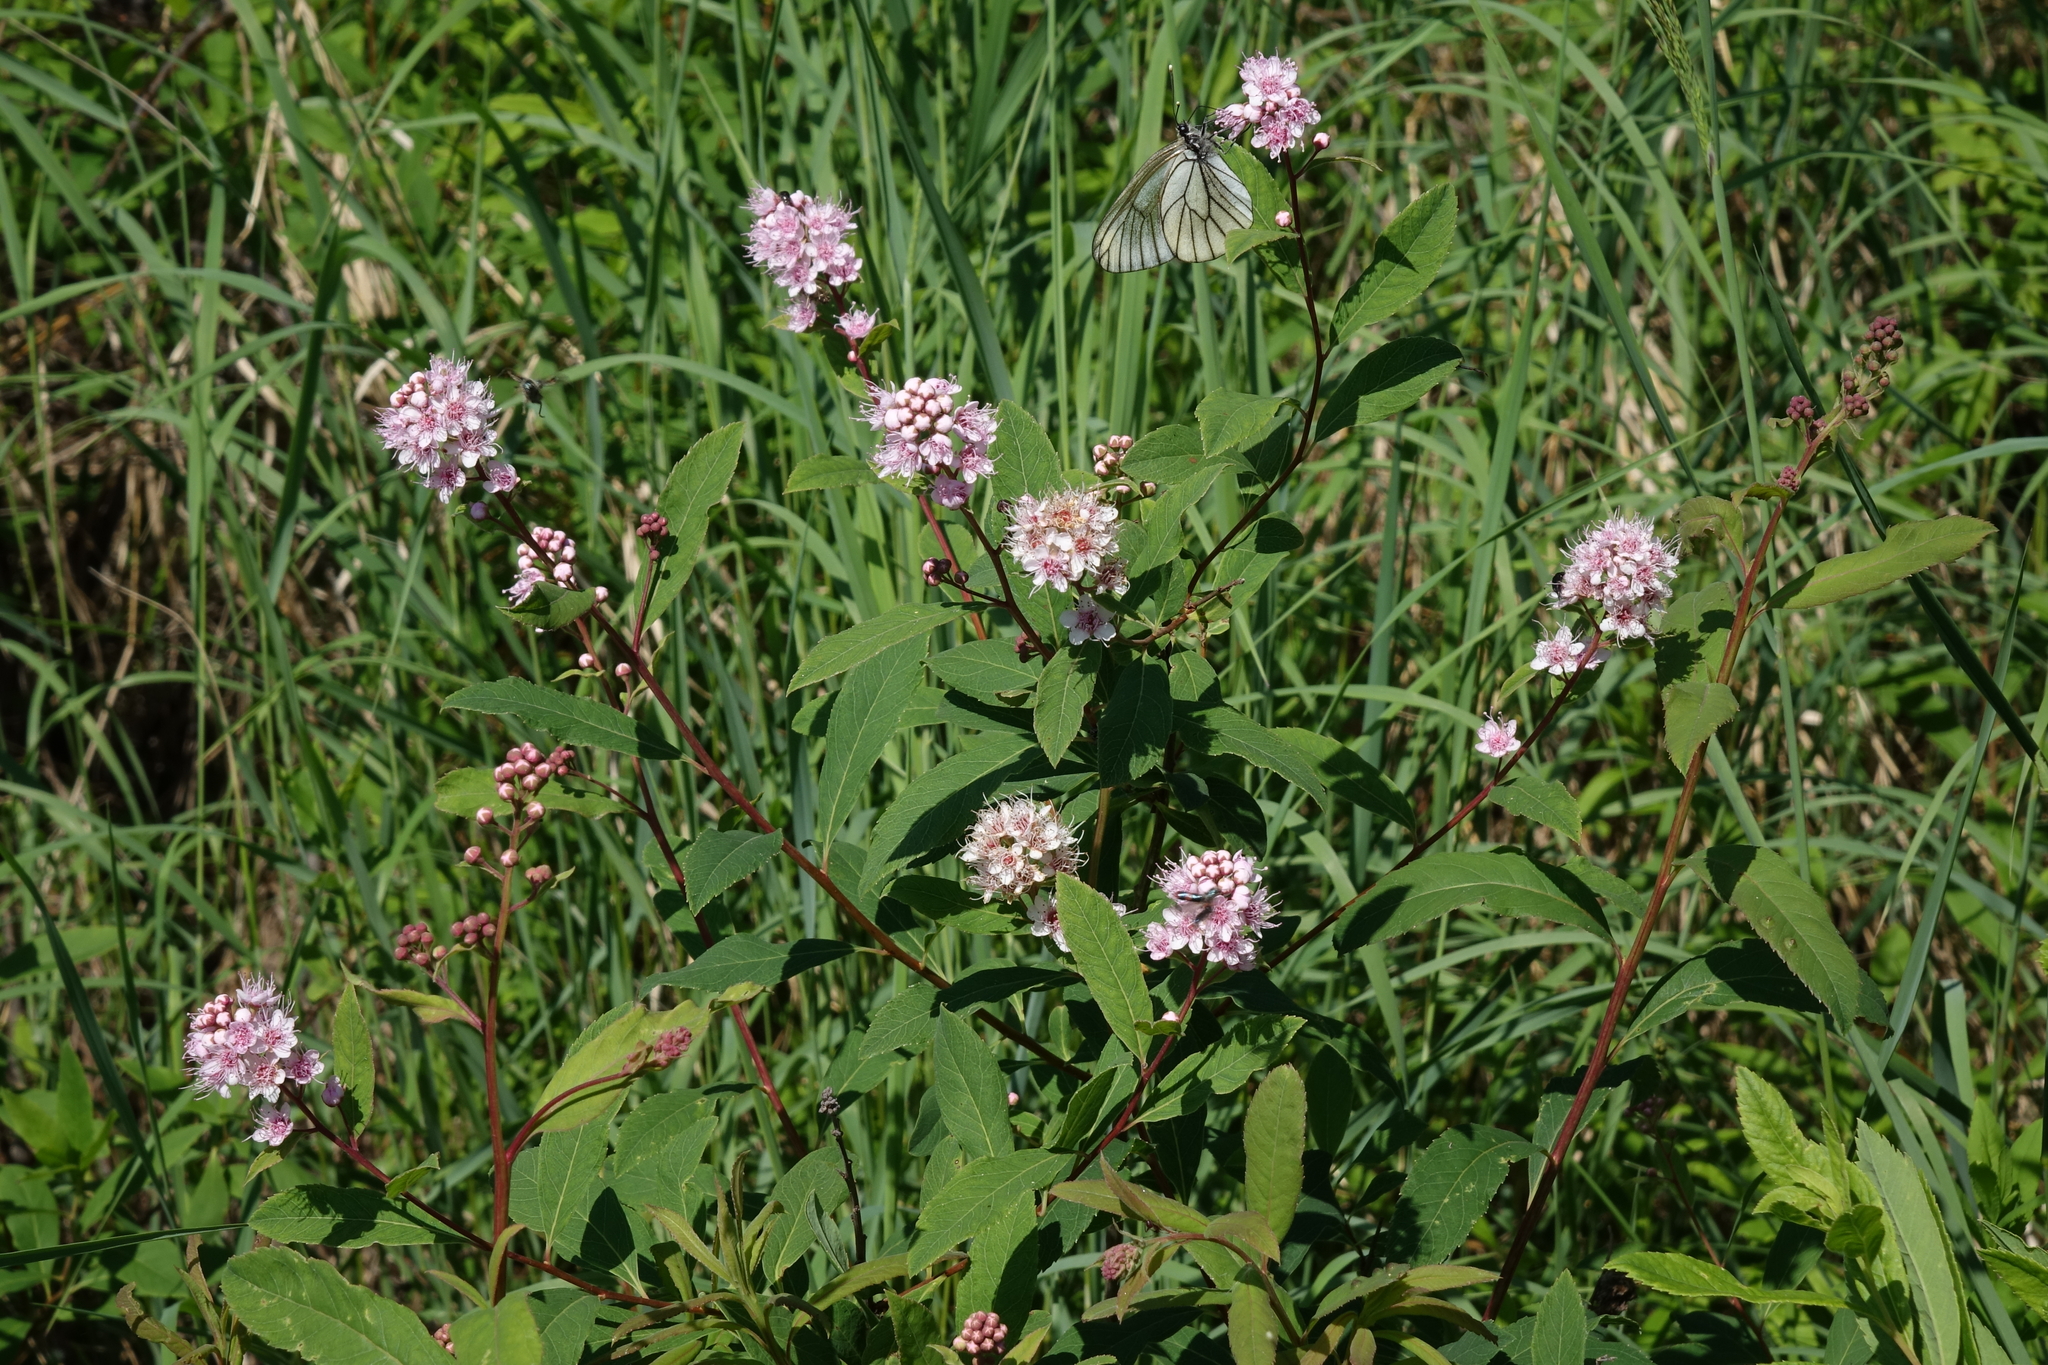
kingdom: Plantae
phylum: Tracheophyta
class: Magnoliopsida
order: Rosales
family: Rosaceae
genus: Spiraea
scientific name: Spiraea salicifolia
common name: Bridewort
